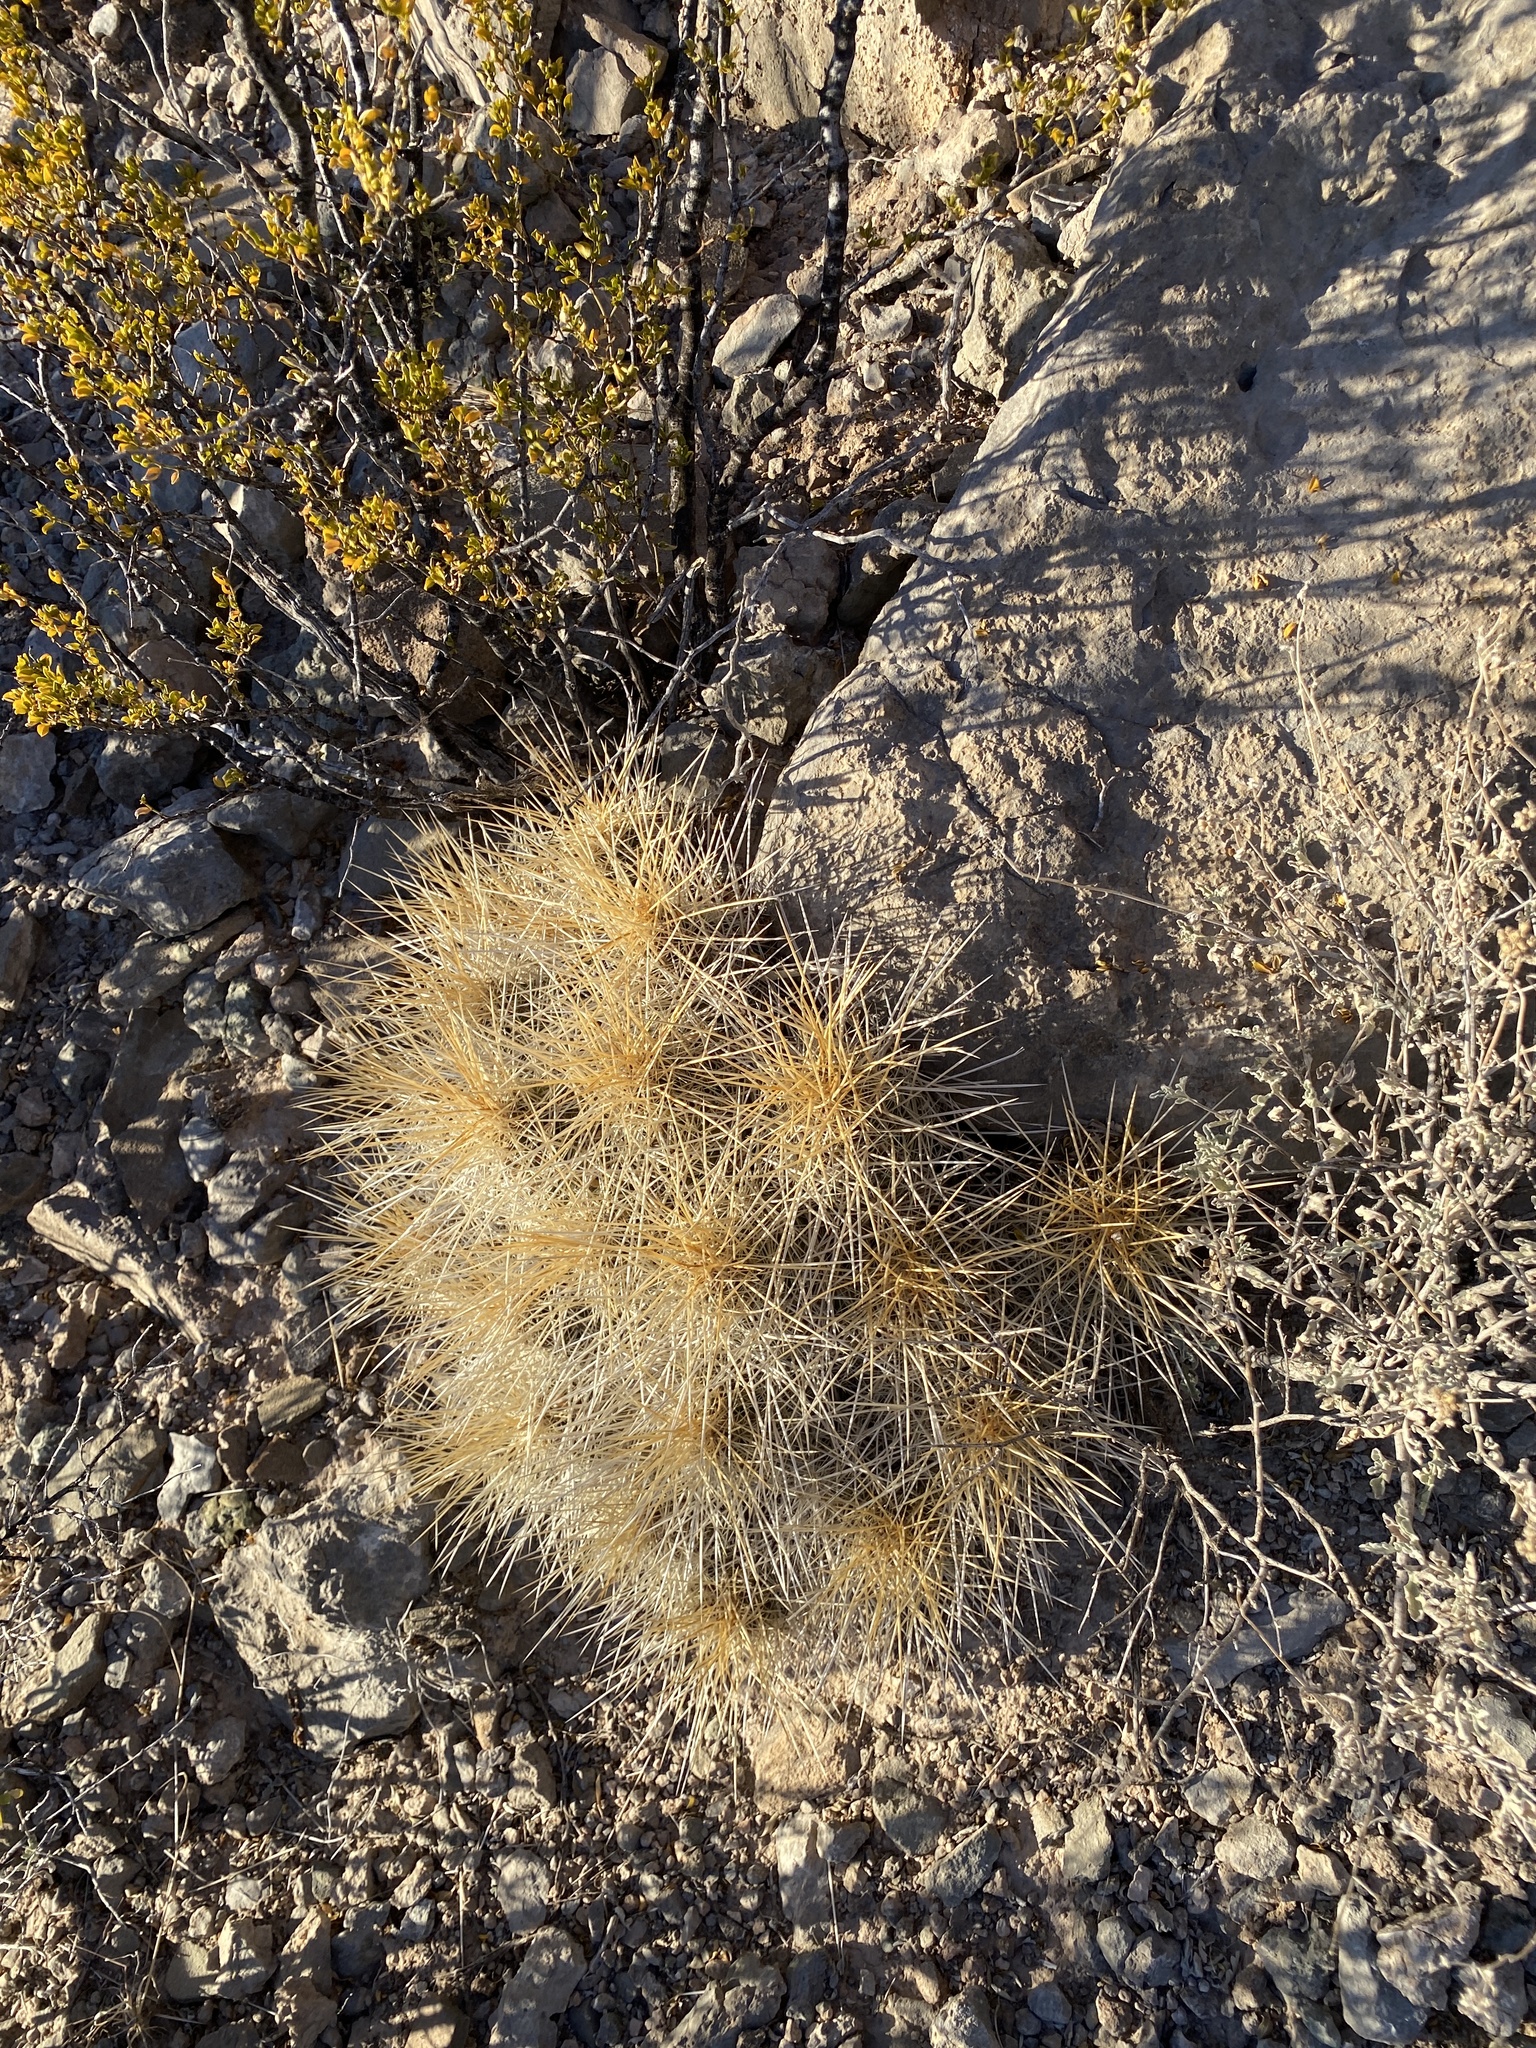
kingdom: Plantae
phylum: Tracheophyta
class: Magnoliopsida
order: Caryophyllales
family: Cactaceae
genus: Echinocereus
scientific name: Echinocereus stramineus
